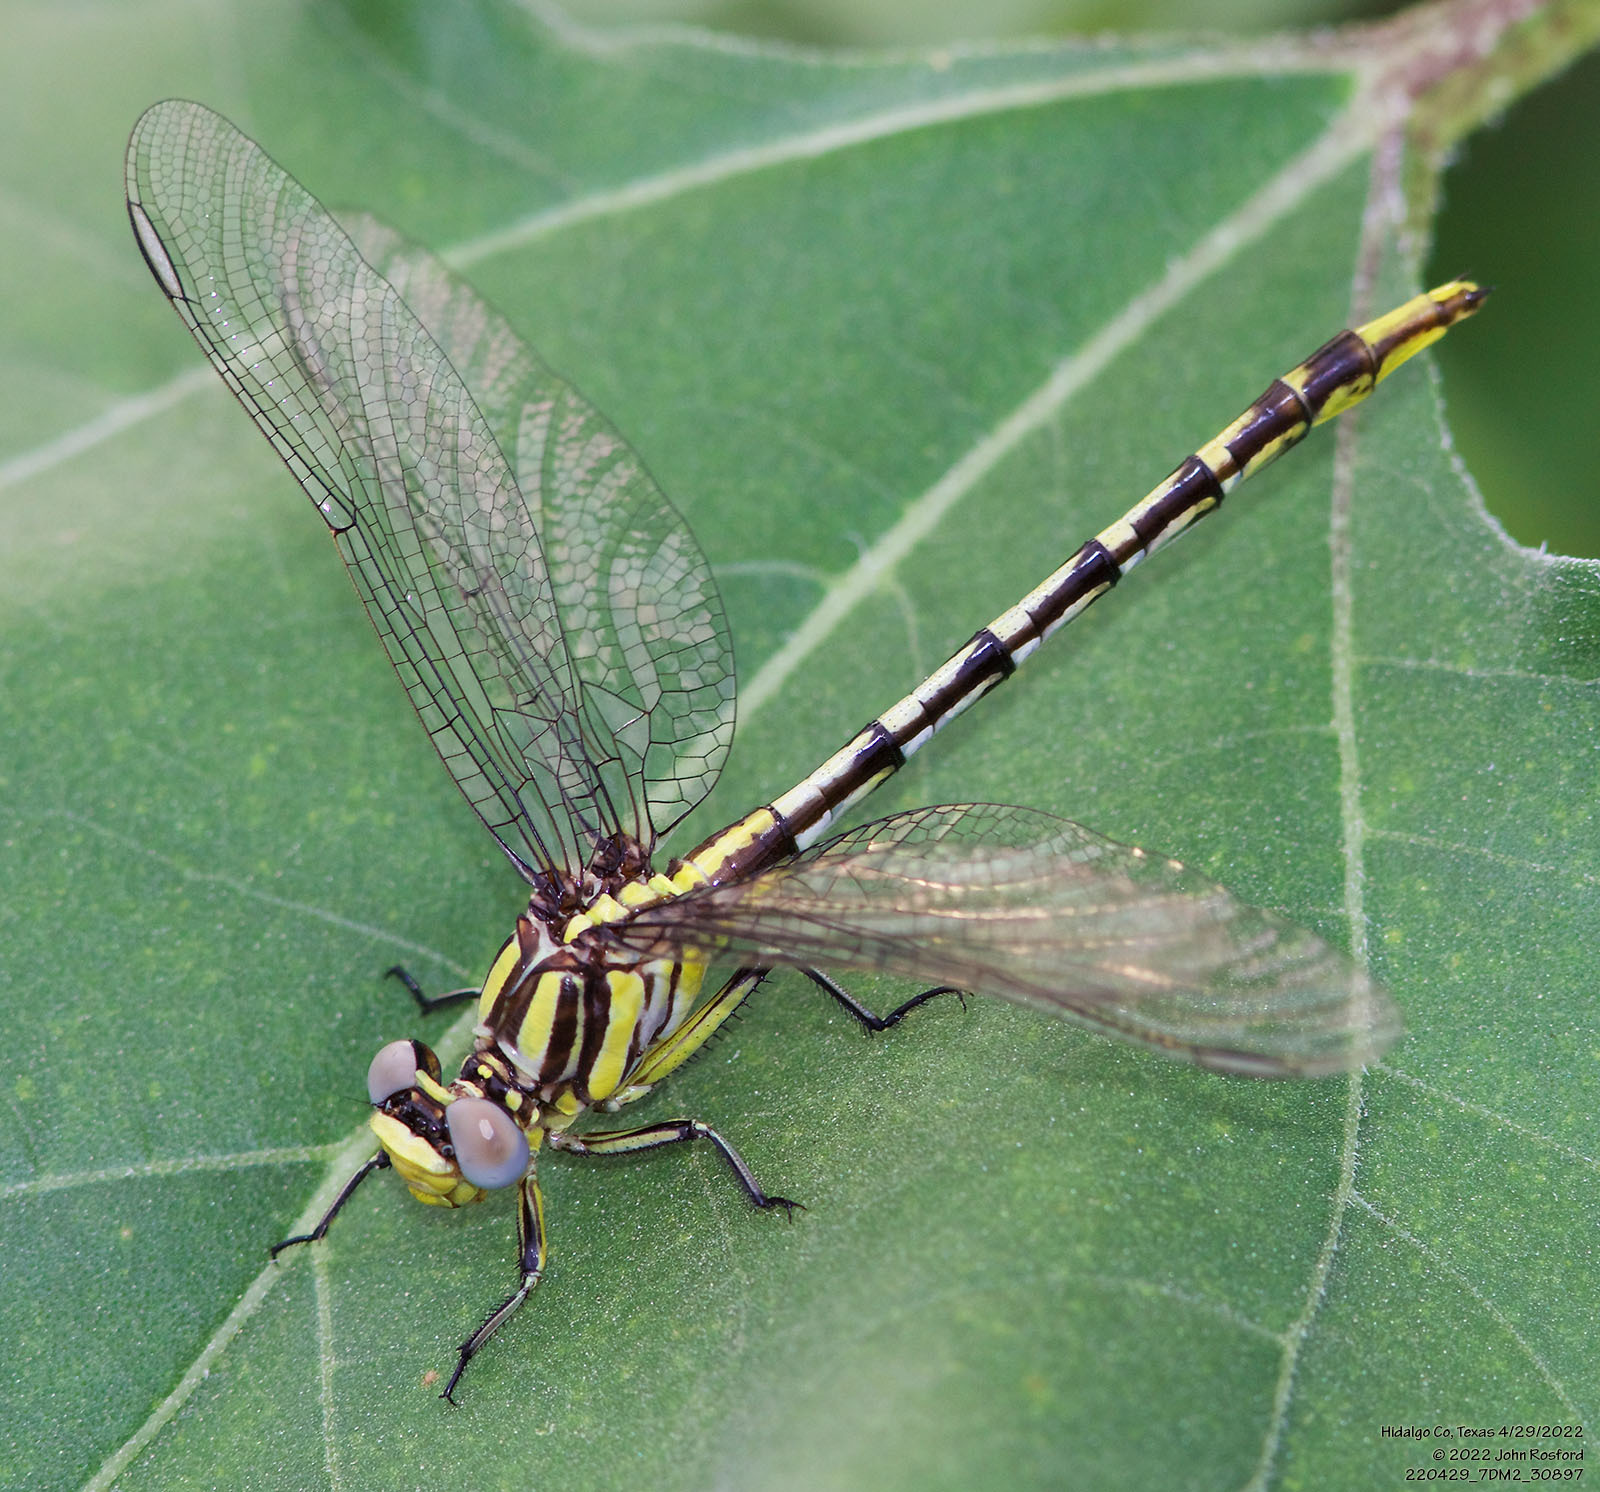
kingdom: Animalia
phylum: Arthropoda
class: Insecta
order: Odonata
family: Gomphidae
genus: Phanogomphus
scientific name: Phanogomphus militaris
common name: Sulphur-tipped clubtail
